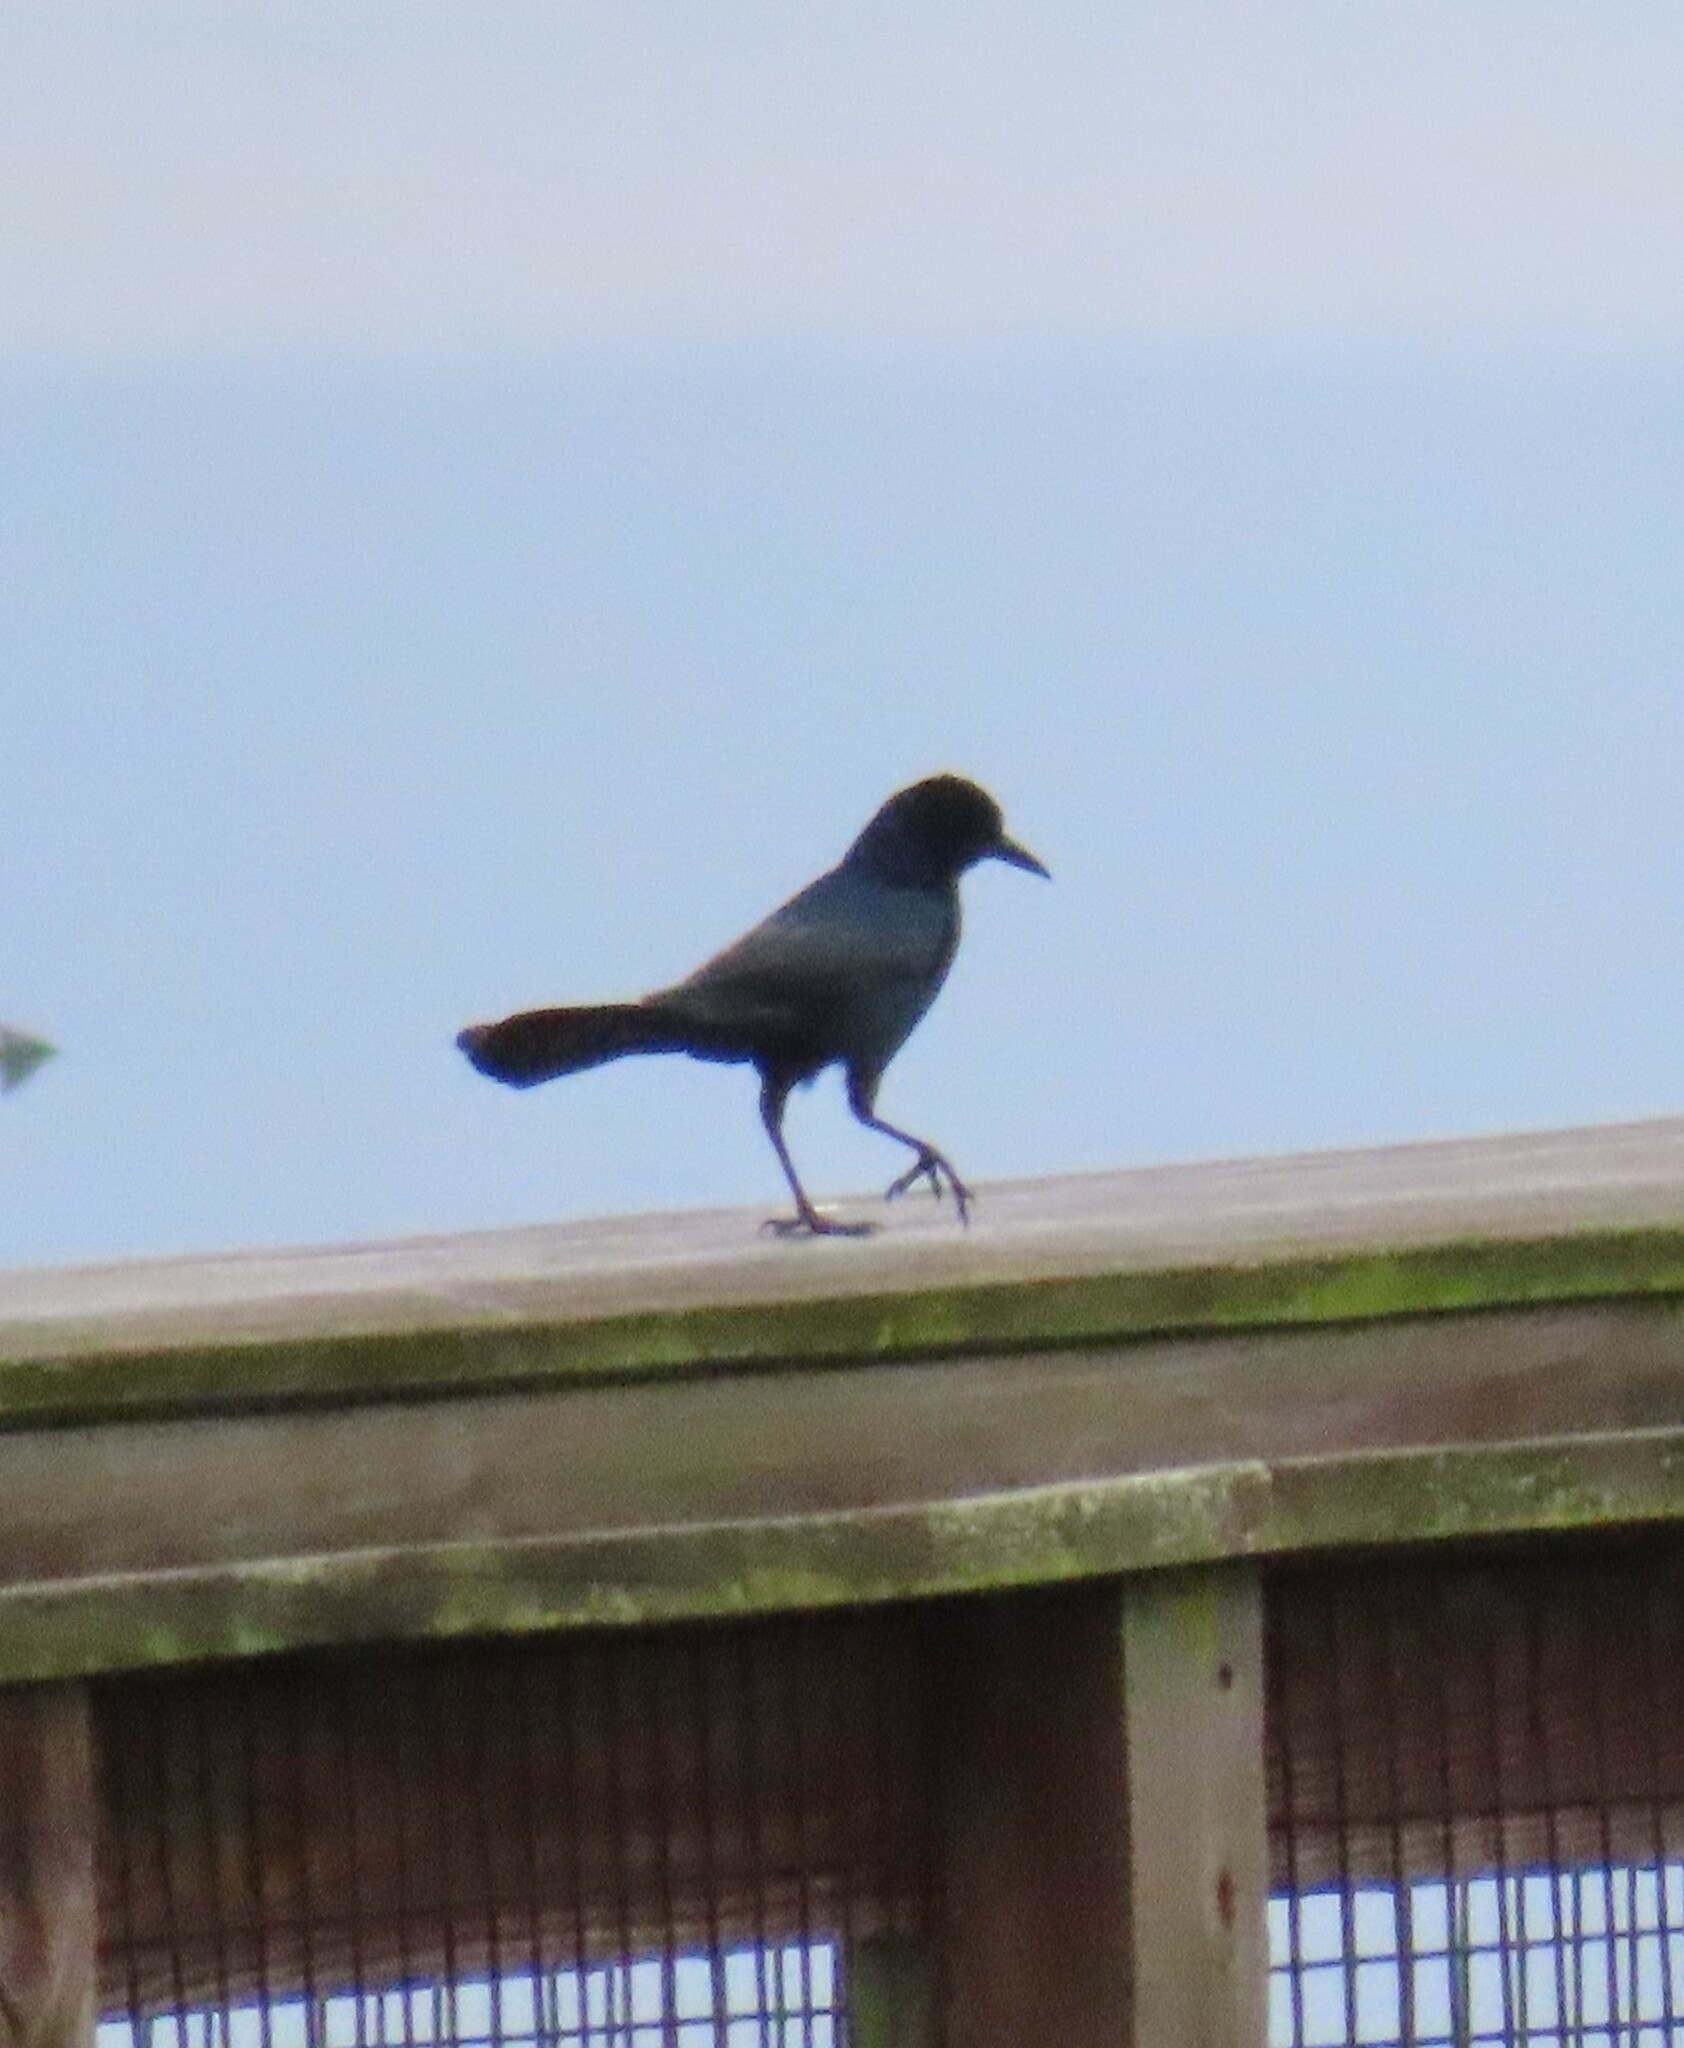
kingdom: Animalia
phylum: Chordata
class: Aves
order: Passeriformes
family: Icteridae
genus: Quiscalus
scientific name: Quiscalus major
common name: Boat-tailed grackle
